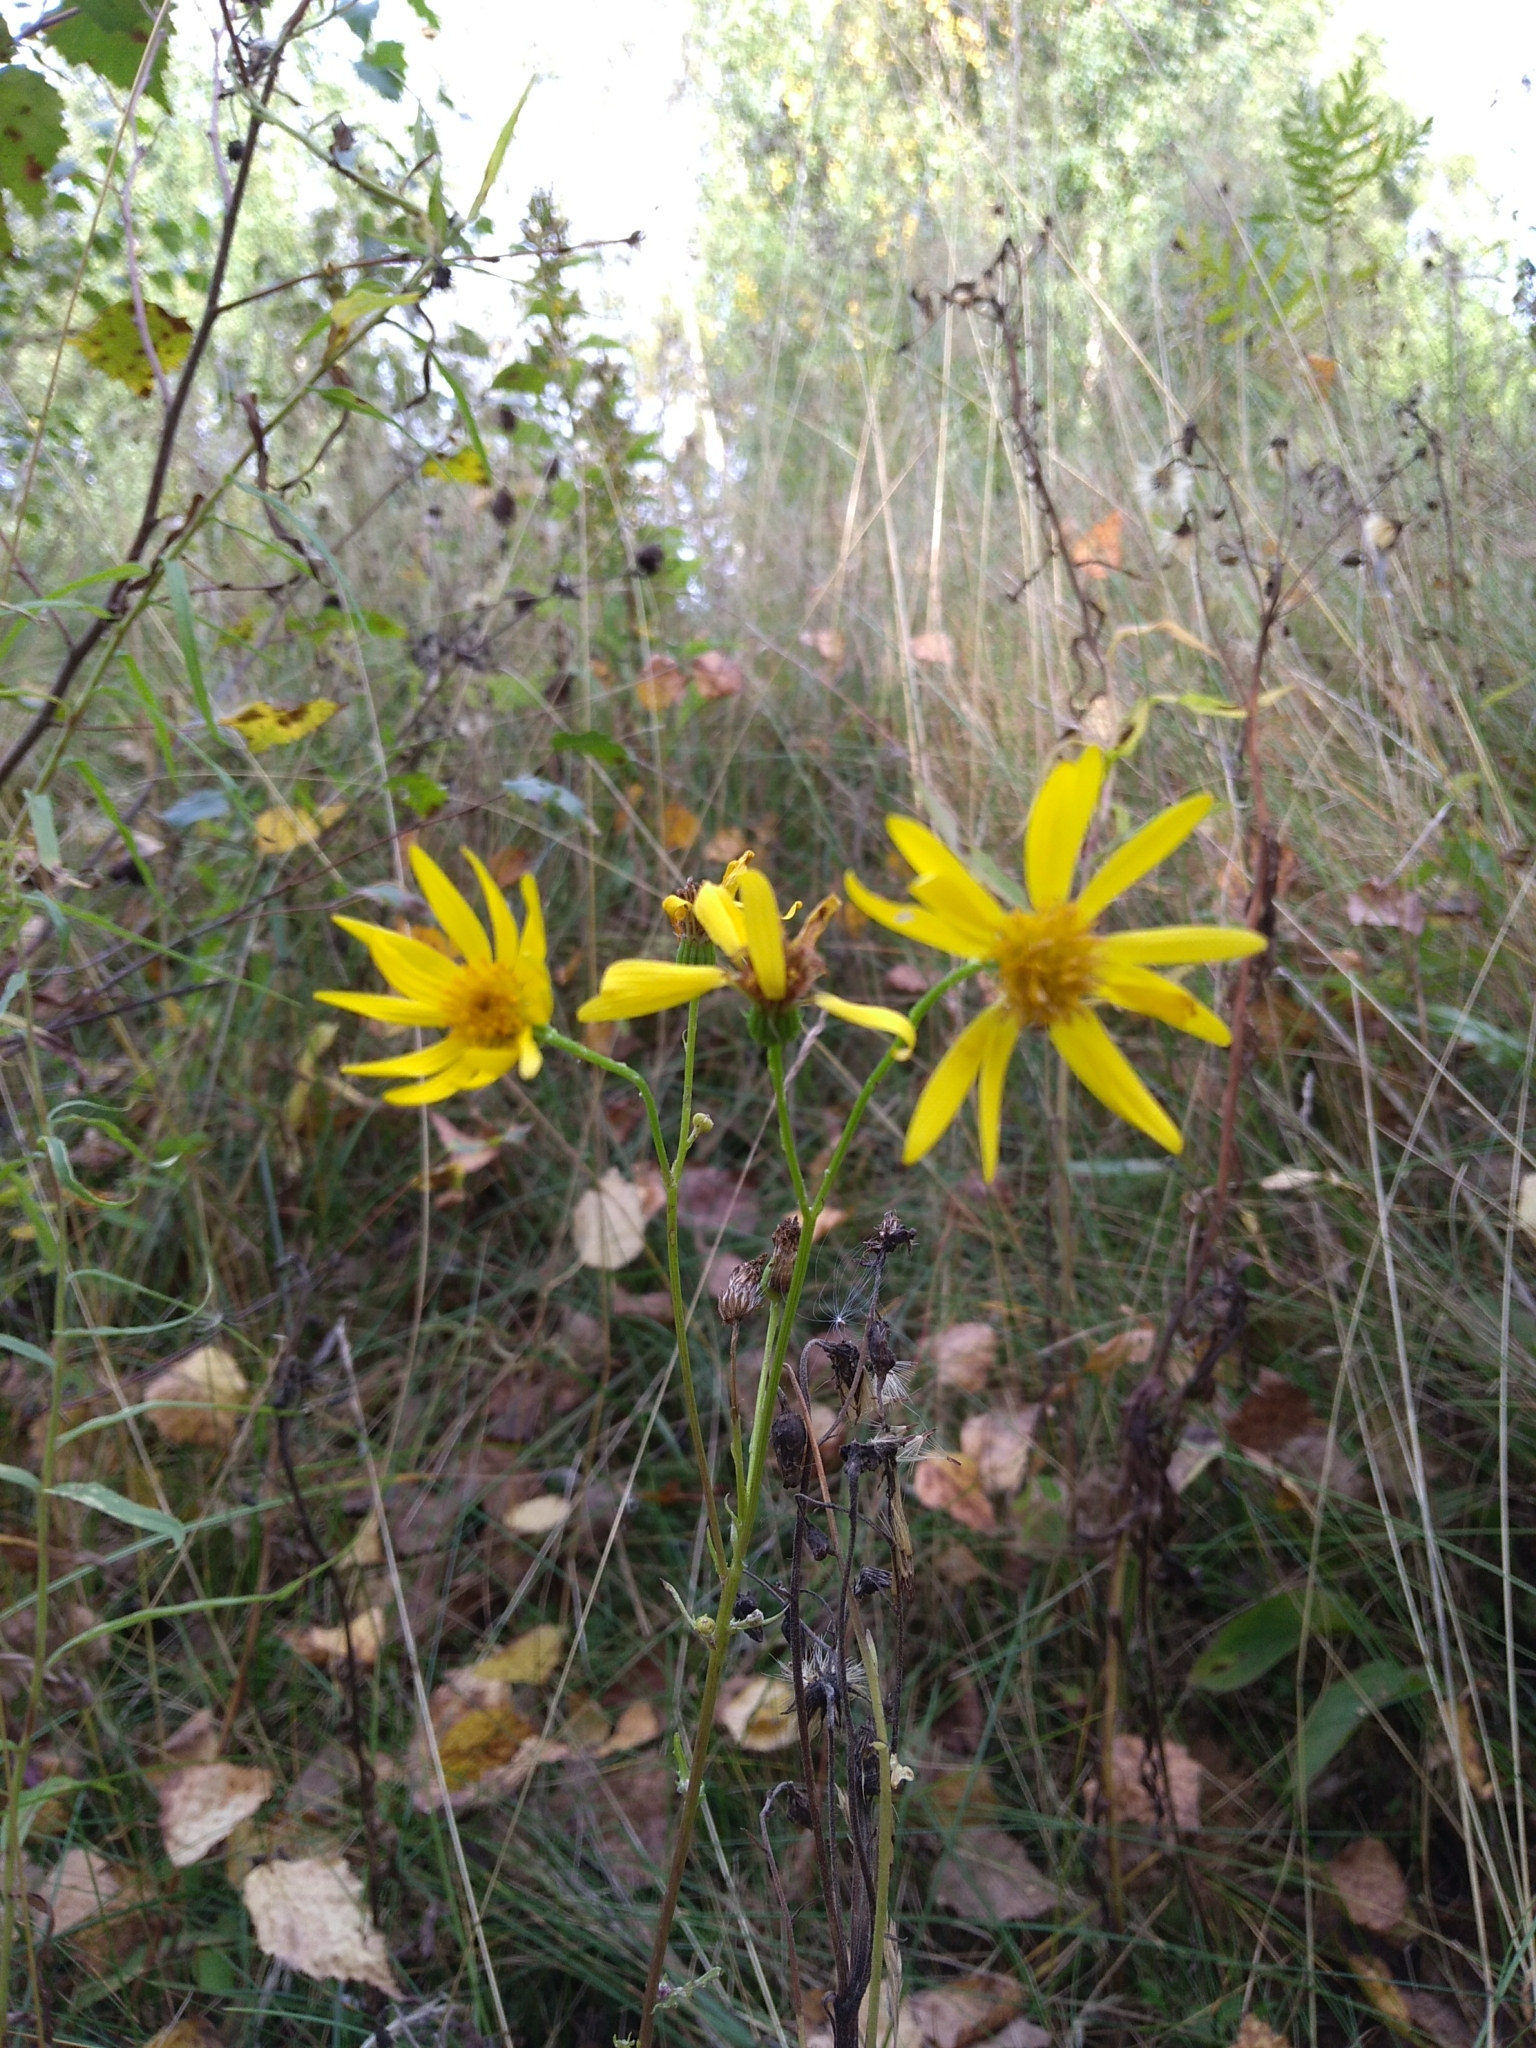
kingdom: Plantae
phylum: Tracheophyta
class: Magnoliopsida
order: Asterales
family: Asteraceae
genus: Jacobaea
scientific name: Jacobaea vulgaris
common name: Stinking willie
